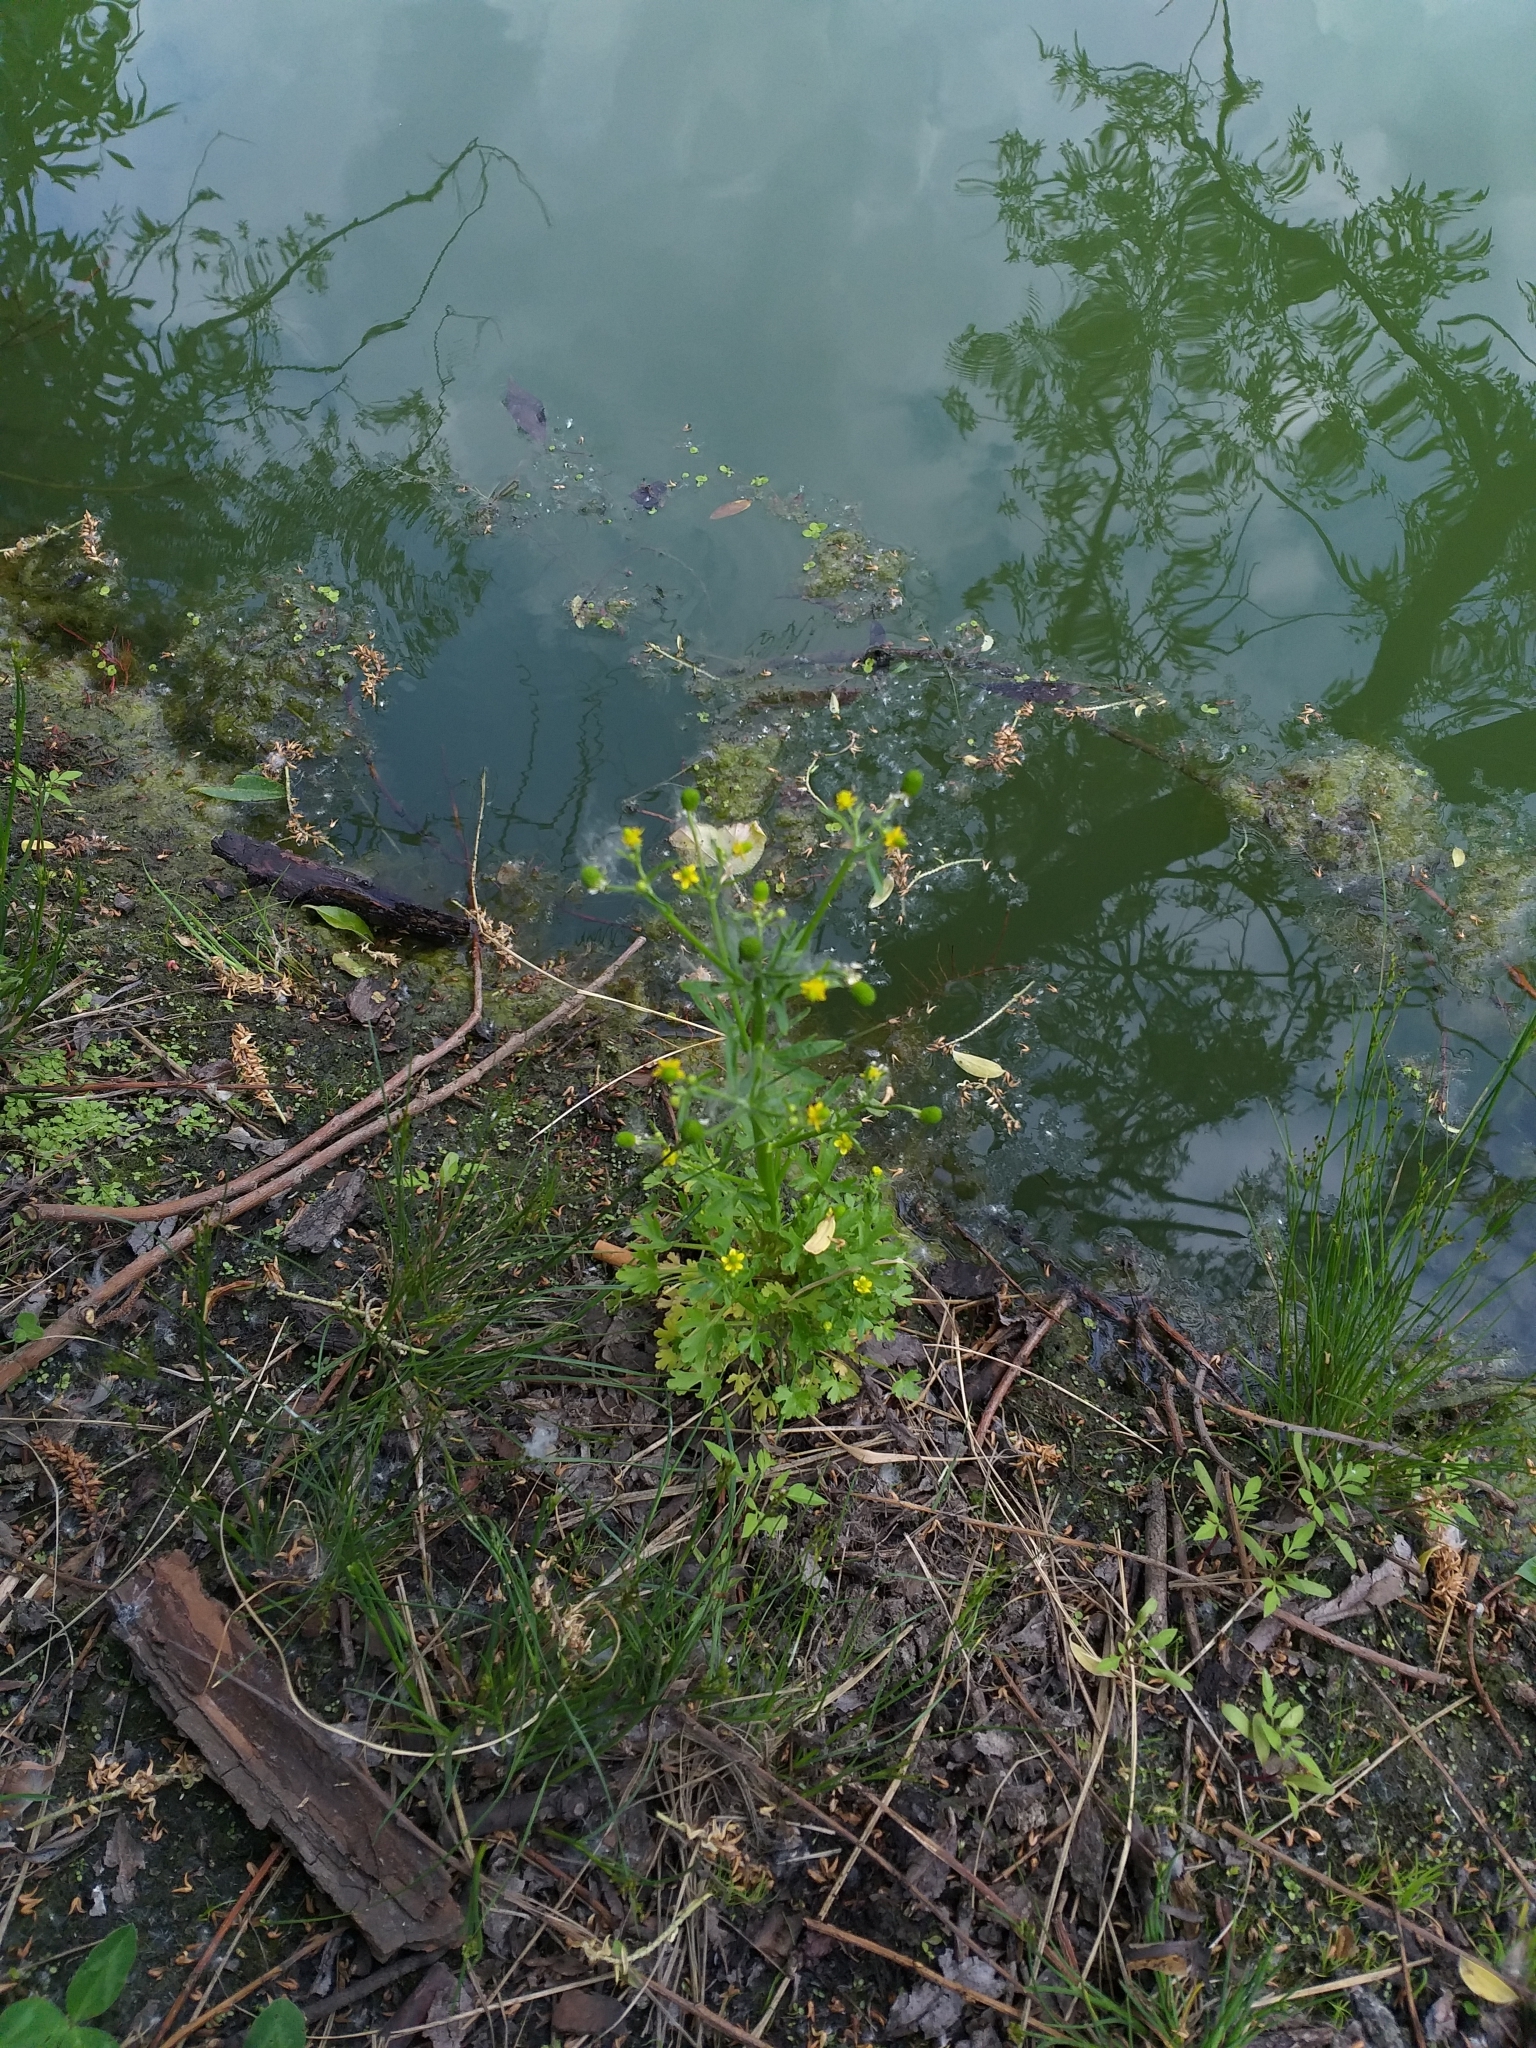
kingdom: Plantae
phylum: Tracheophyta
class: Magnoliopsida
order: Ranunculales
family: Ranunculaceae
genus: Ranunculus
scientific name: Ranunculus sceleratus
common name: Celery-leaved buttercup
